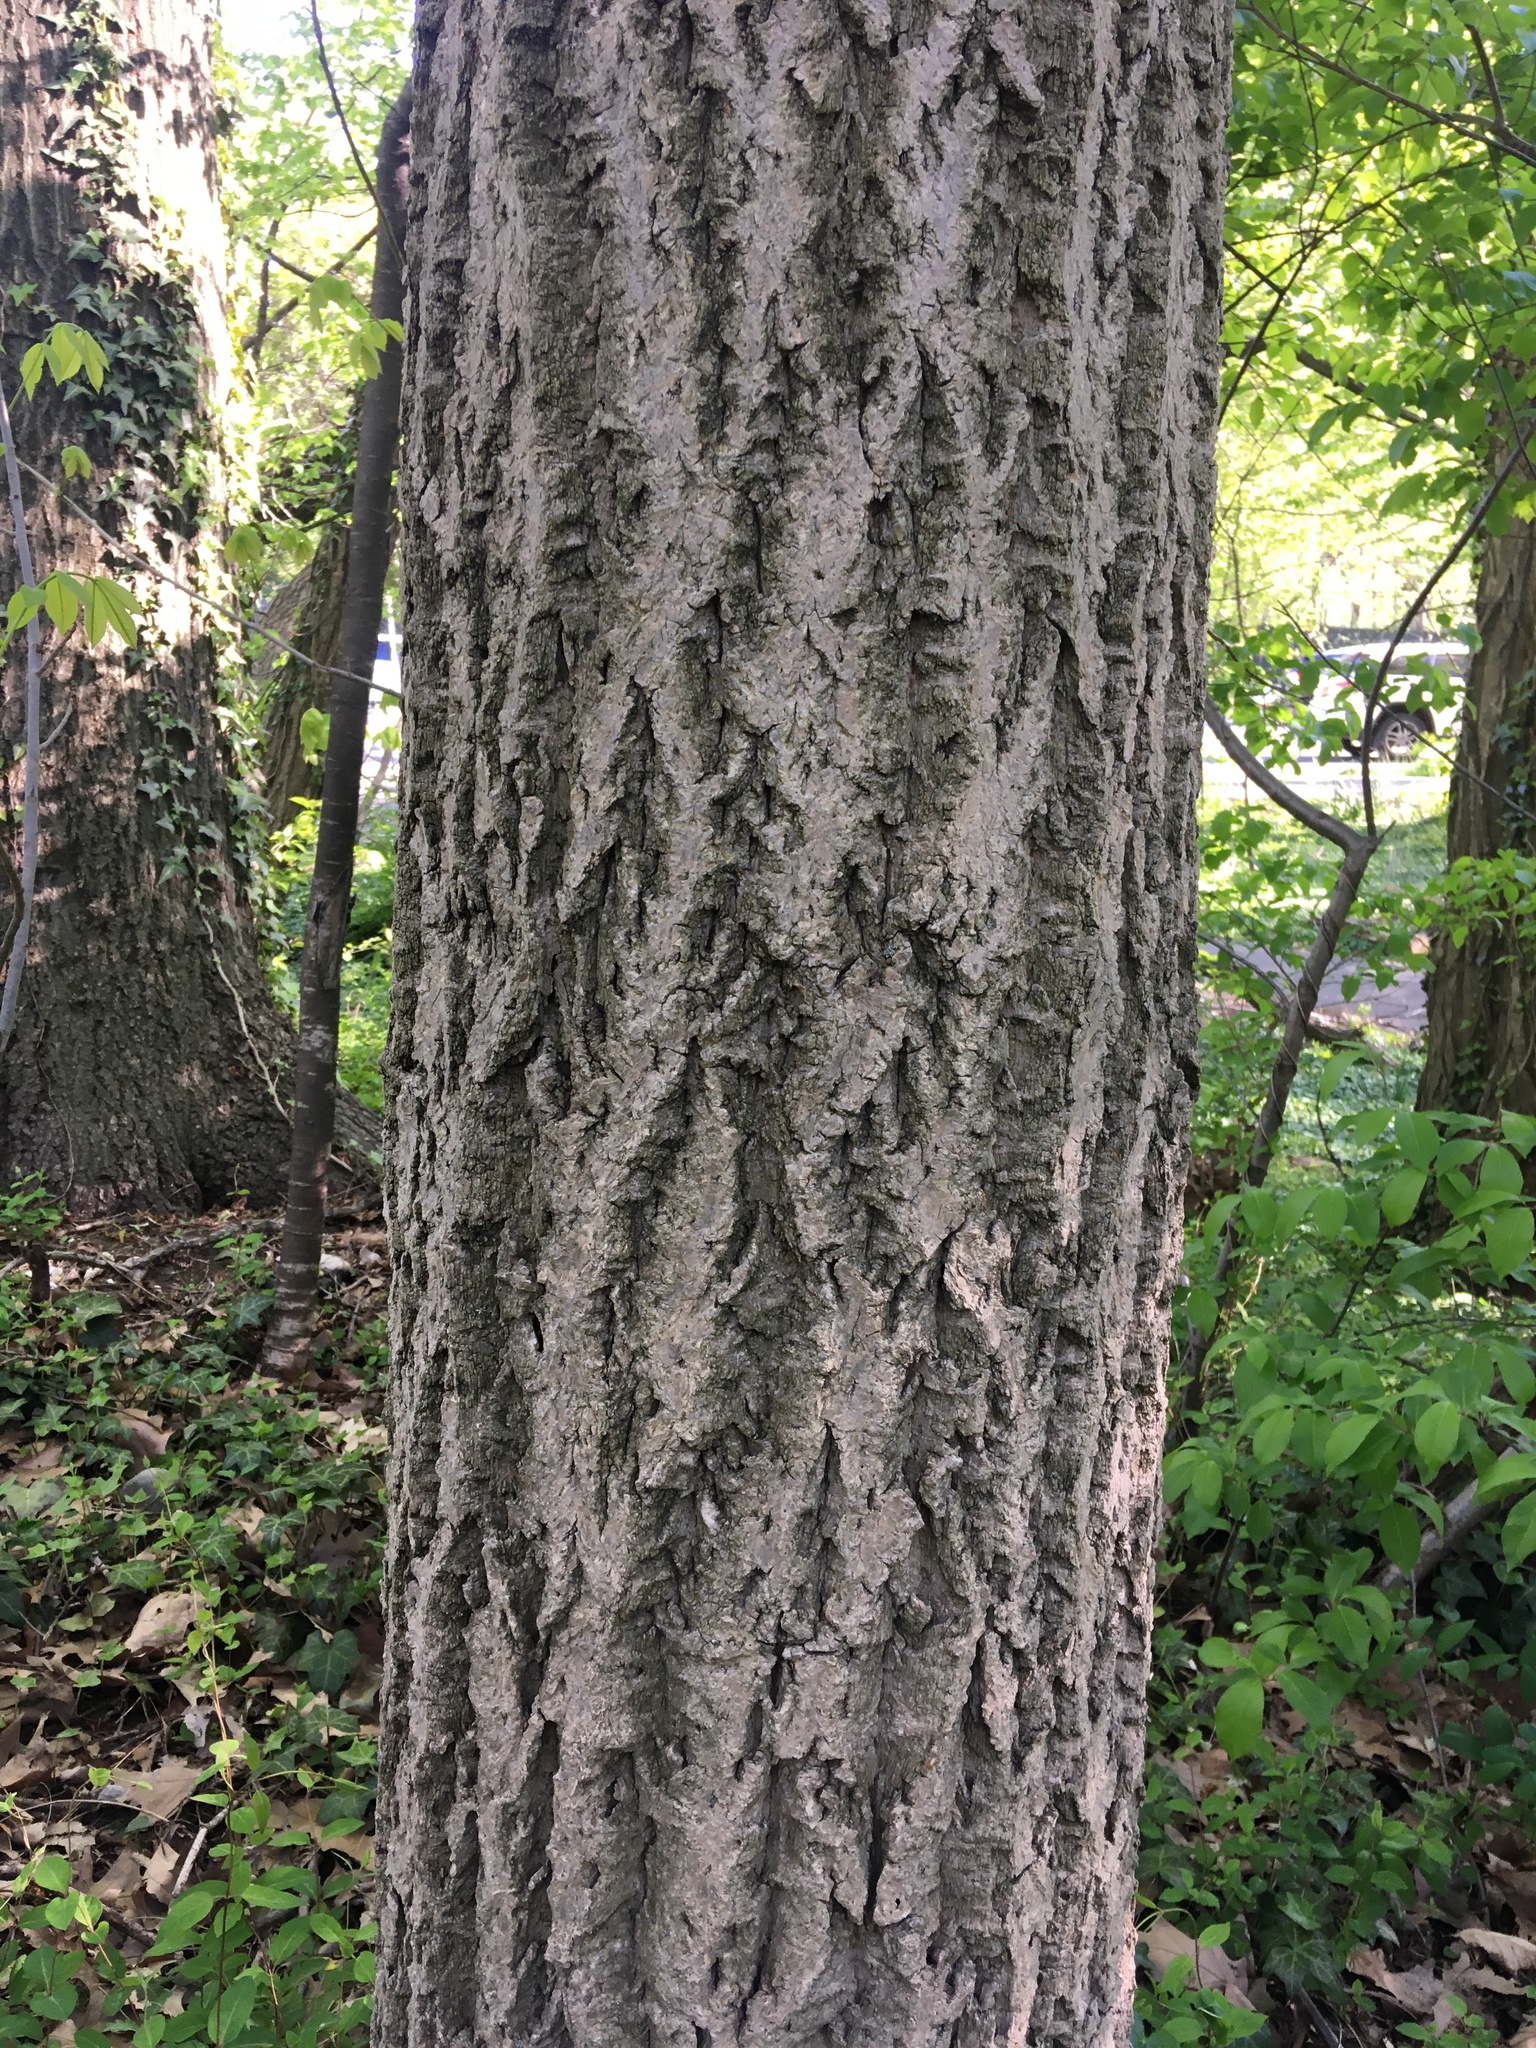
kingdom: Plantae
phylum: Tracheophyta
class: Magnoliopsida
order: Sapindales
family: Rutaceae
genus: Phellodendron
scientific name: Phellodendron amurense
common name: Amur corktree
